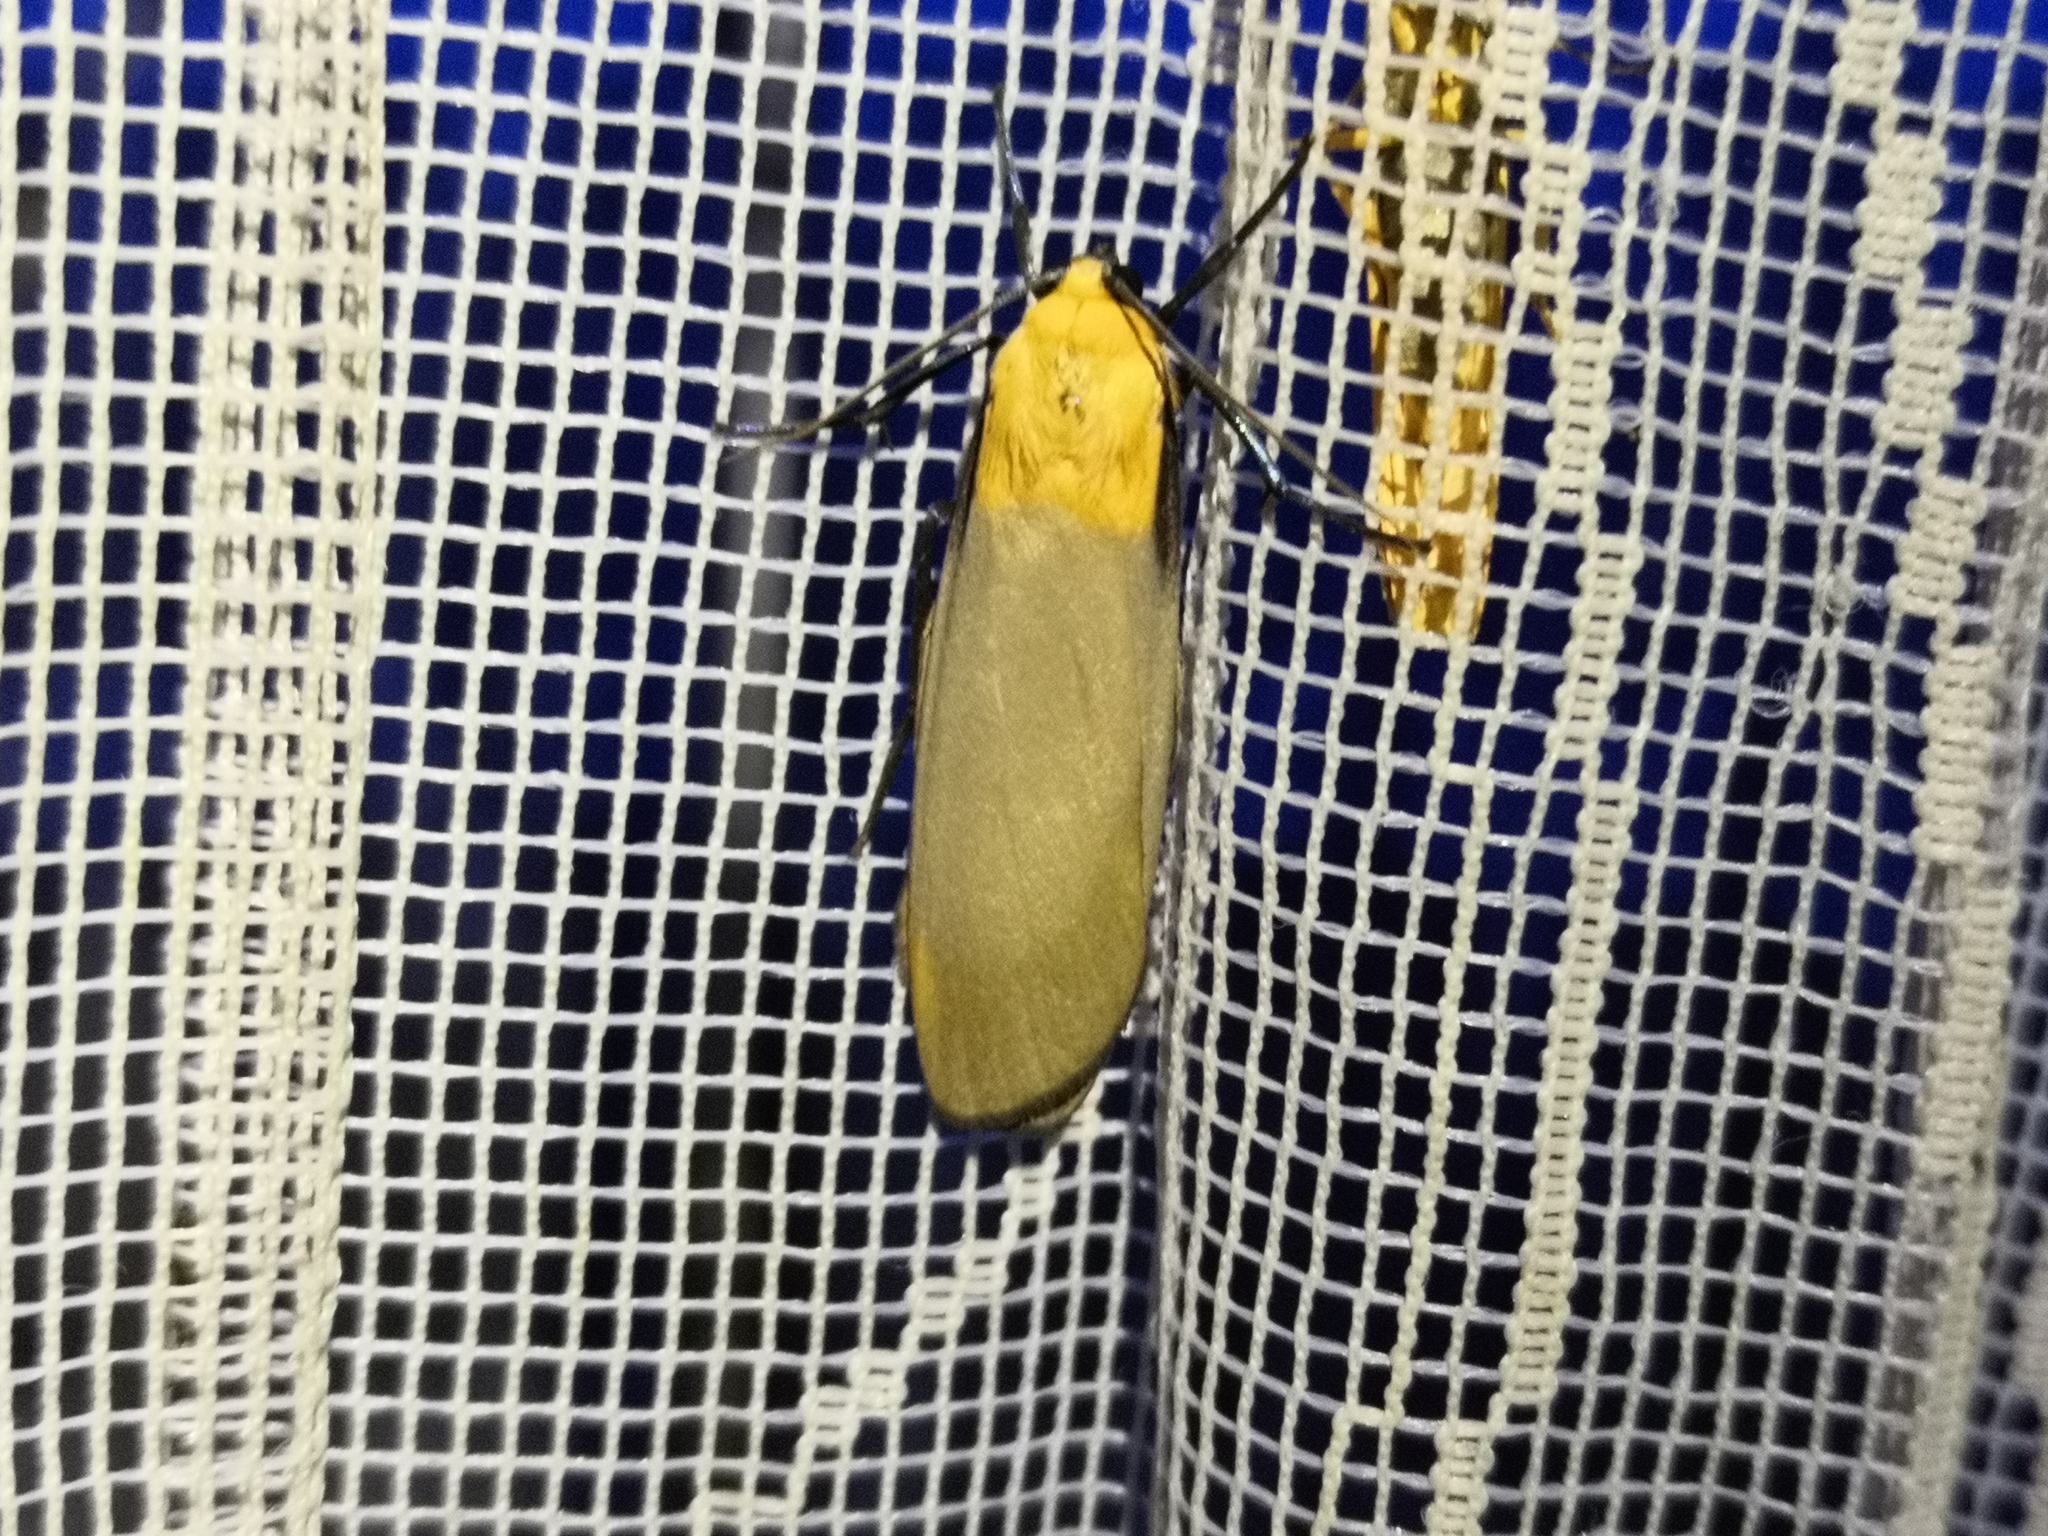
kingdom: Animalia
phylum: Arthropoda
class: Insecta
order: Lepidoptera
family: Erebidae
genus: Lithosia
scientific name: Lithosia quadra
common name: Four-spotted footman
